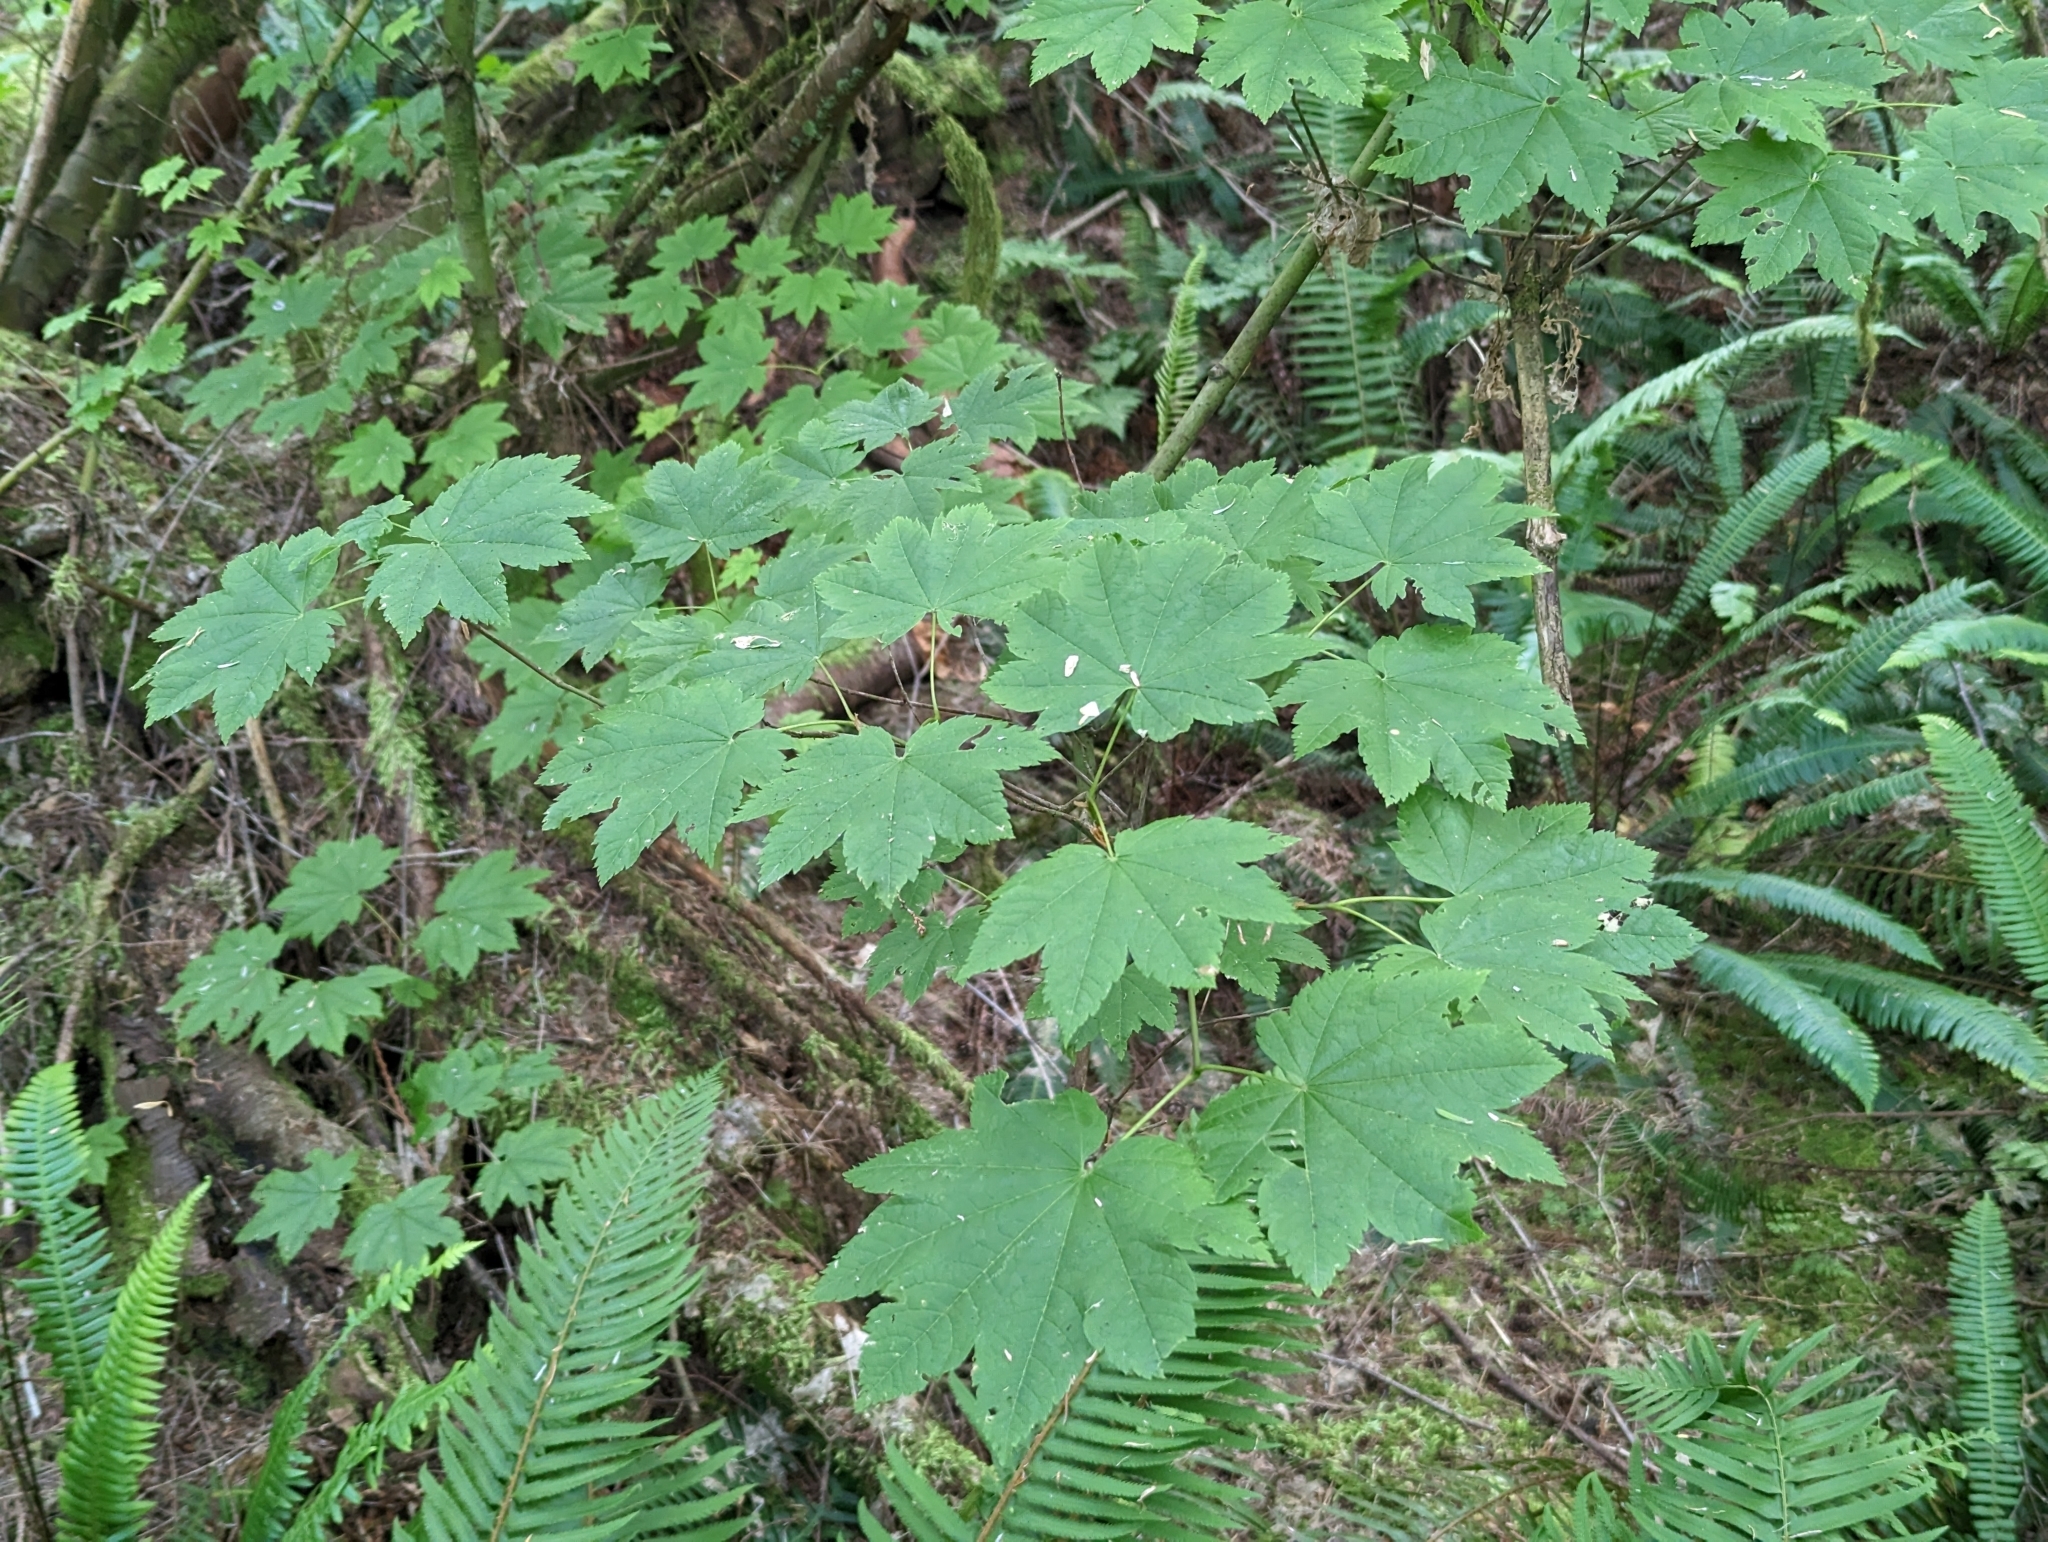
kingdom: Plantae
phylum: Tracheophyta
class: Magnoliopsida
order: Sapindales
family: Sapindaceae
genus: Acer
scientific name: Acer circinatum
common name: Vine maple
